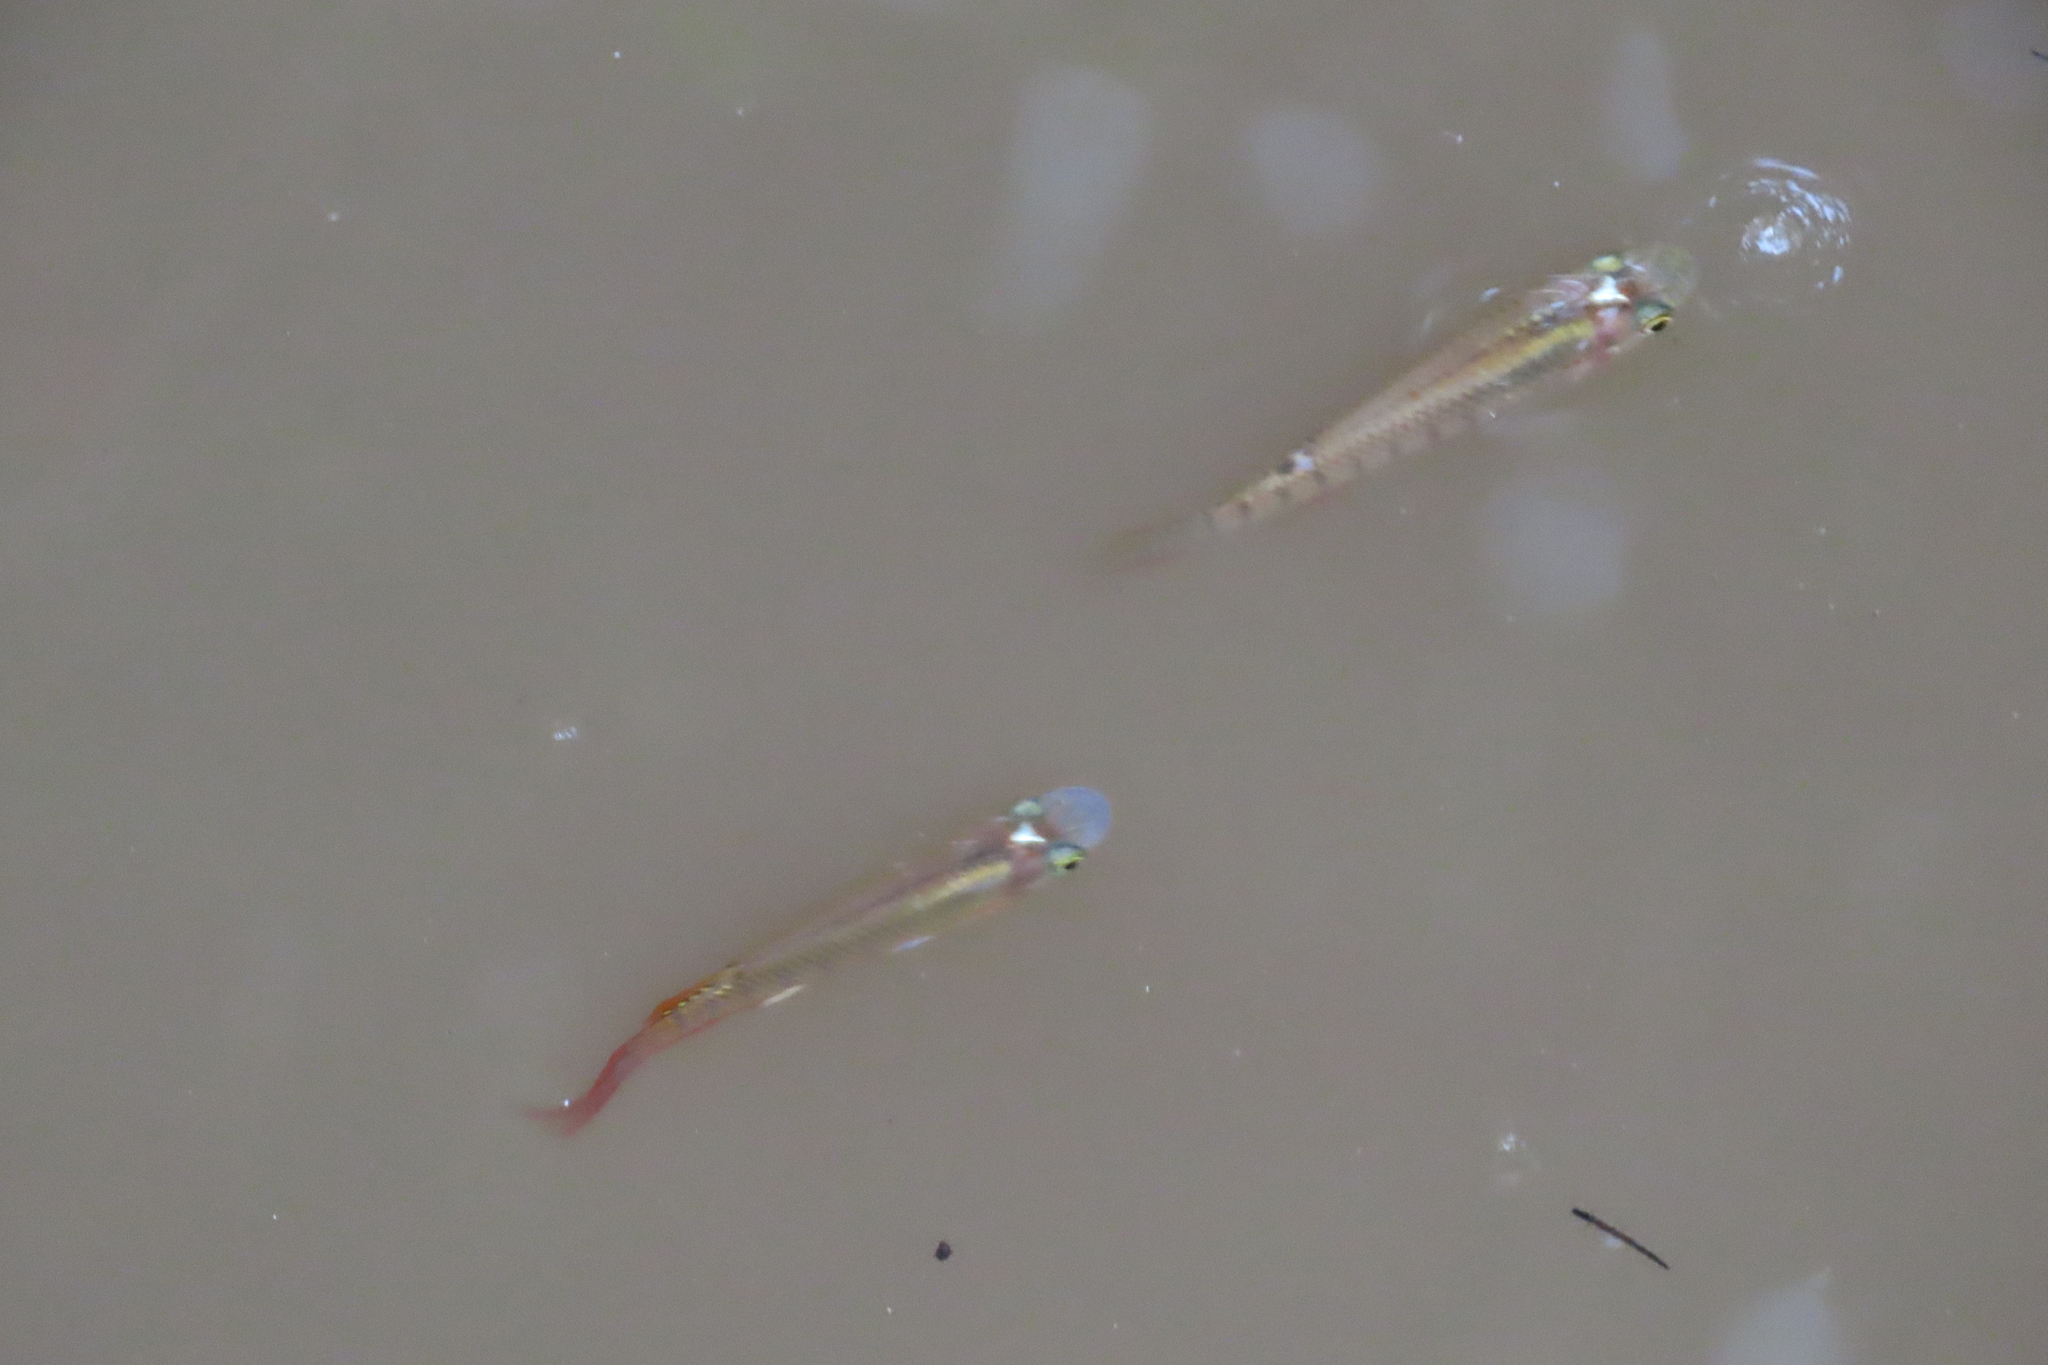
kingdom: Animalia
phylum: Chordata
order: Cyprinodontiformes
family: Aplocheilidae
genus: Aplocheilus
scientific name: Aplocheilus lineatus
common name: Striped panchax
